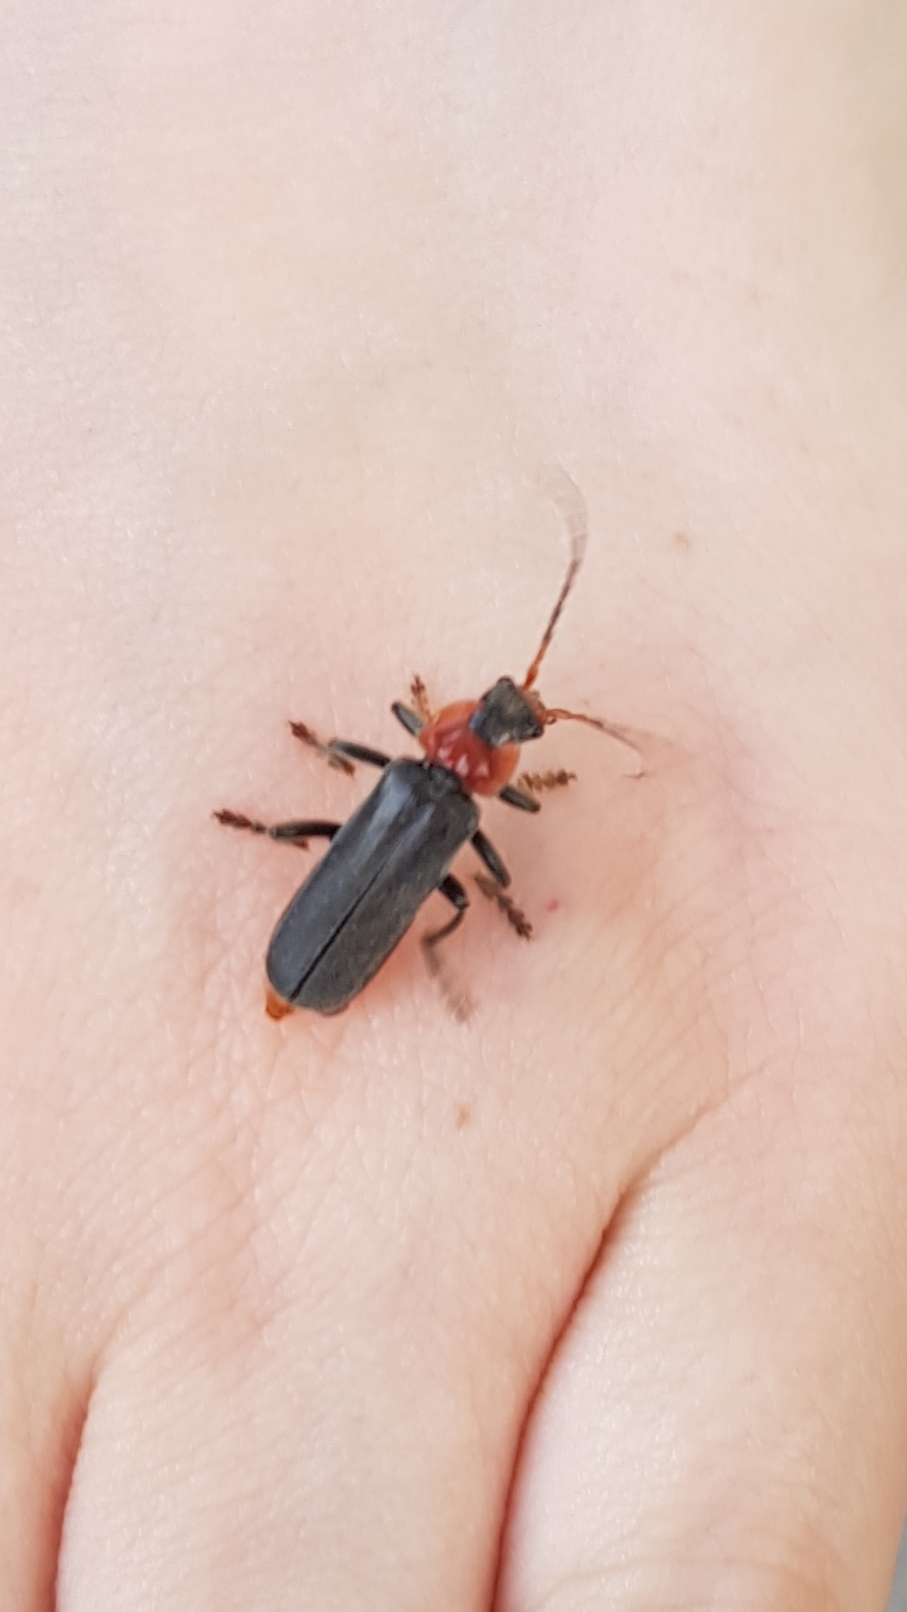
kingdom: Animalia
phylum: Arthropoda
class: Insecta
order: Coleoptera
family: Cantharidae
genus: Cantharis
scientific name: Cantharis fusca
